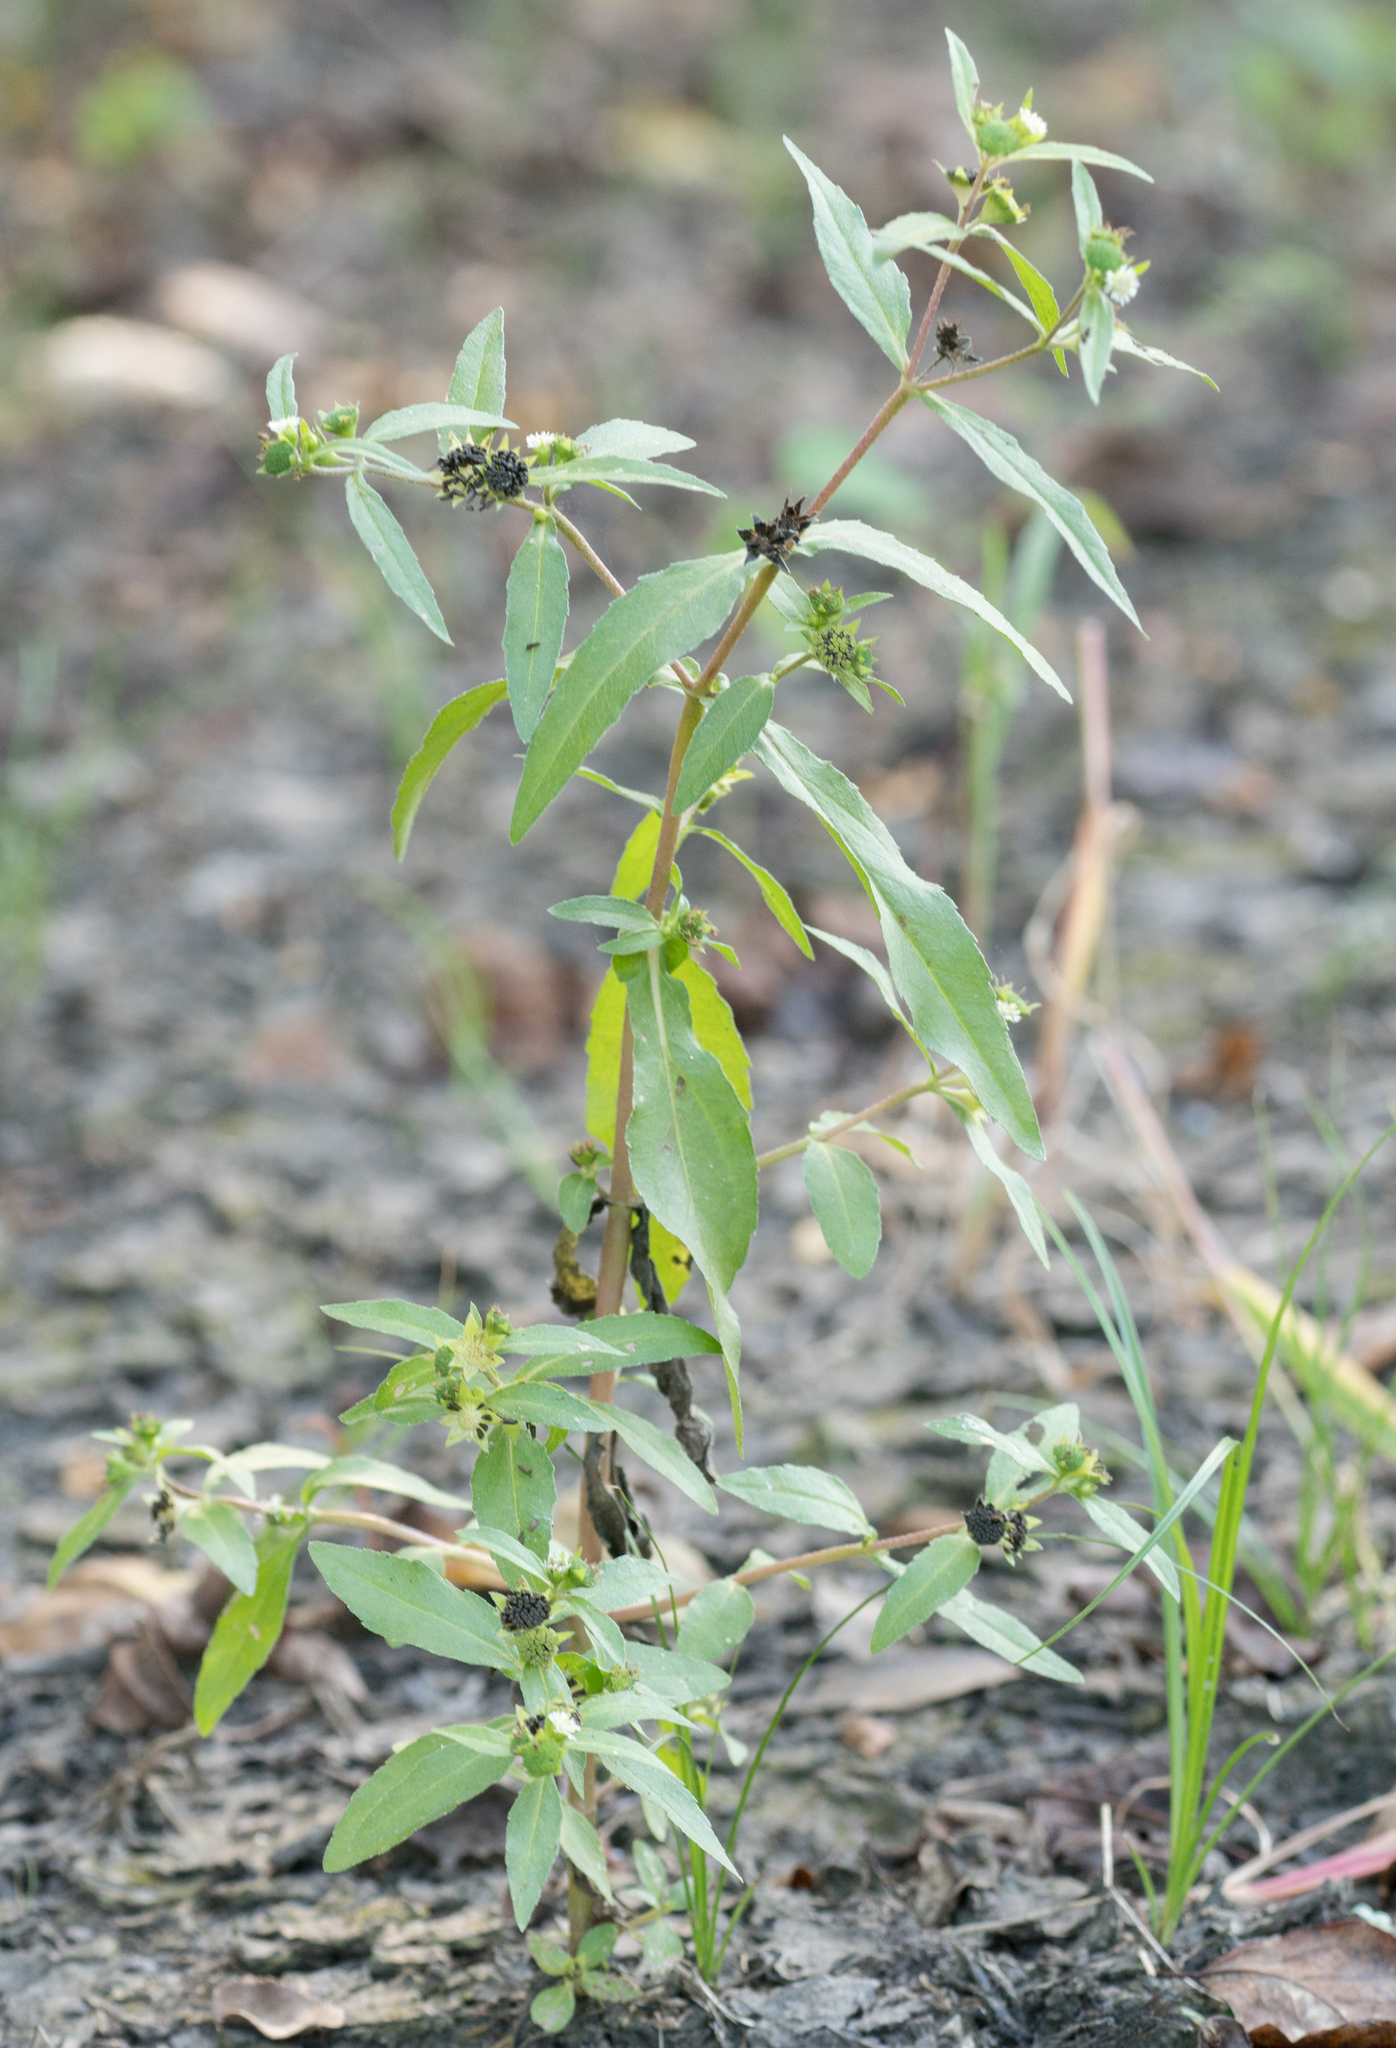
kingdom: Plantae
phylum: Tracheophyta
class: Magnoliopsida
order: Asterales
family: Asteraceae
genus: Eclipta
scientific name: Eclipta prostrata
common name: False daisy
